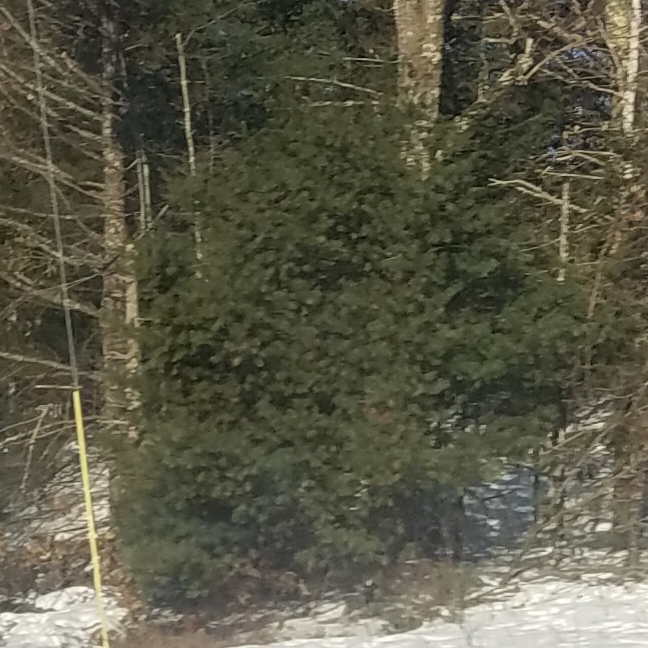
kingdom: Plantae
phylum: Tracheophyta
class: Pinopsida
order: Pinales
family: Pinaceae
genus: Pinus
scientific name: Pinus strobus
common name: Weymouth pine
